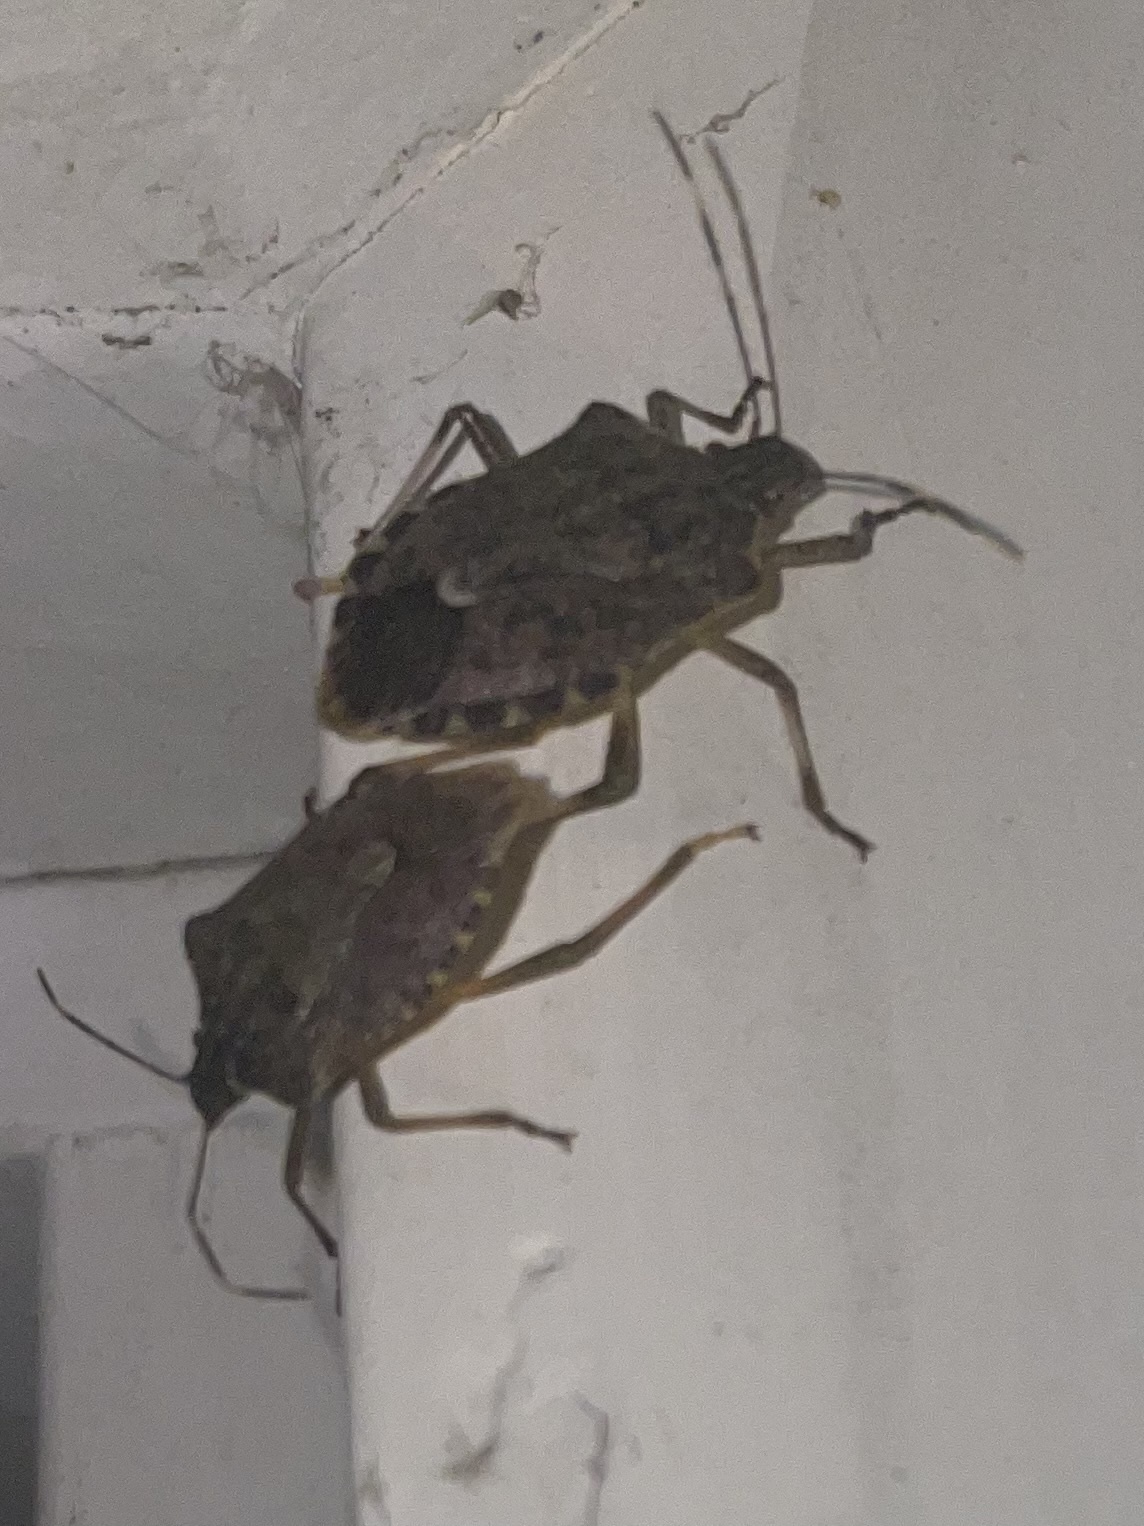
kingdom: Animalia
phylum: Arthropoda
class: Insecta
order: Hemiptera
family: Pentatomidae
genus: Halyomorpha
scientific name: Halyomorpha halys
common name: Brown marmorated stink bug
